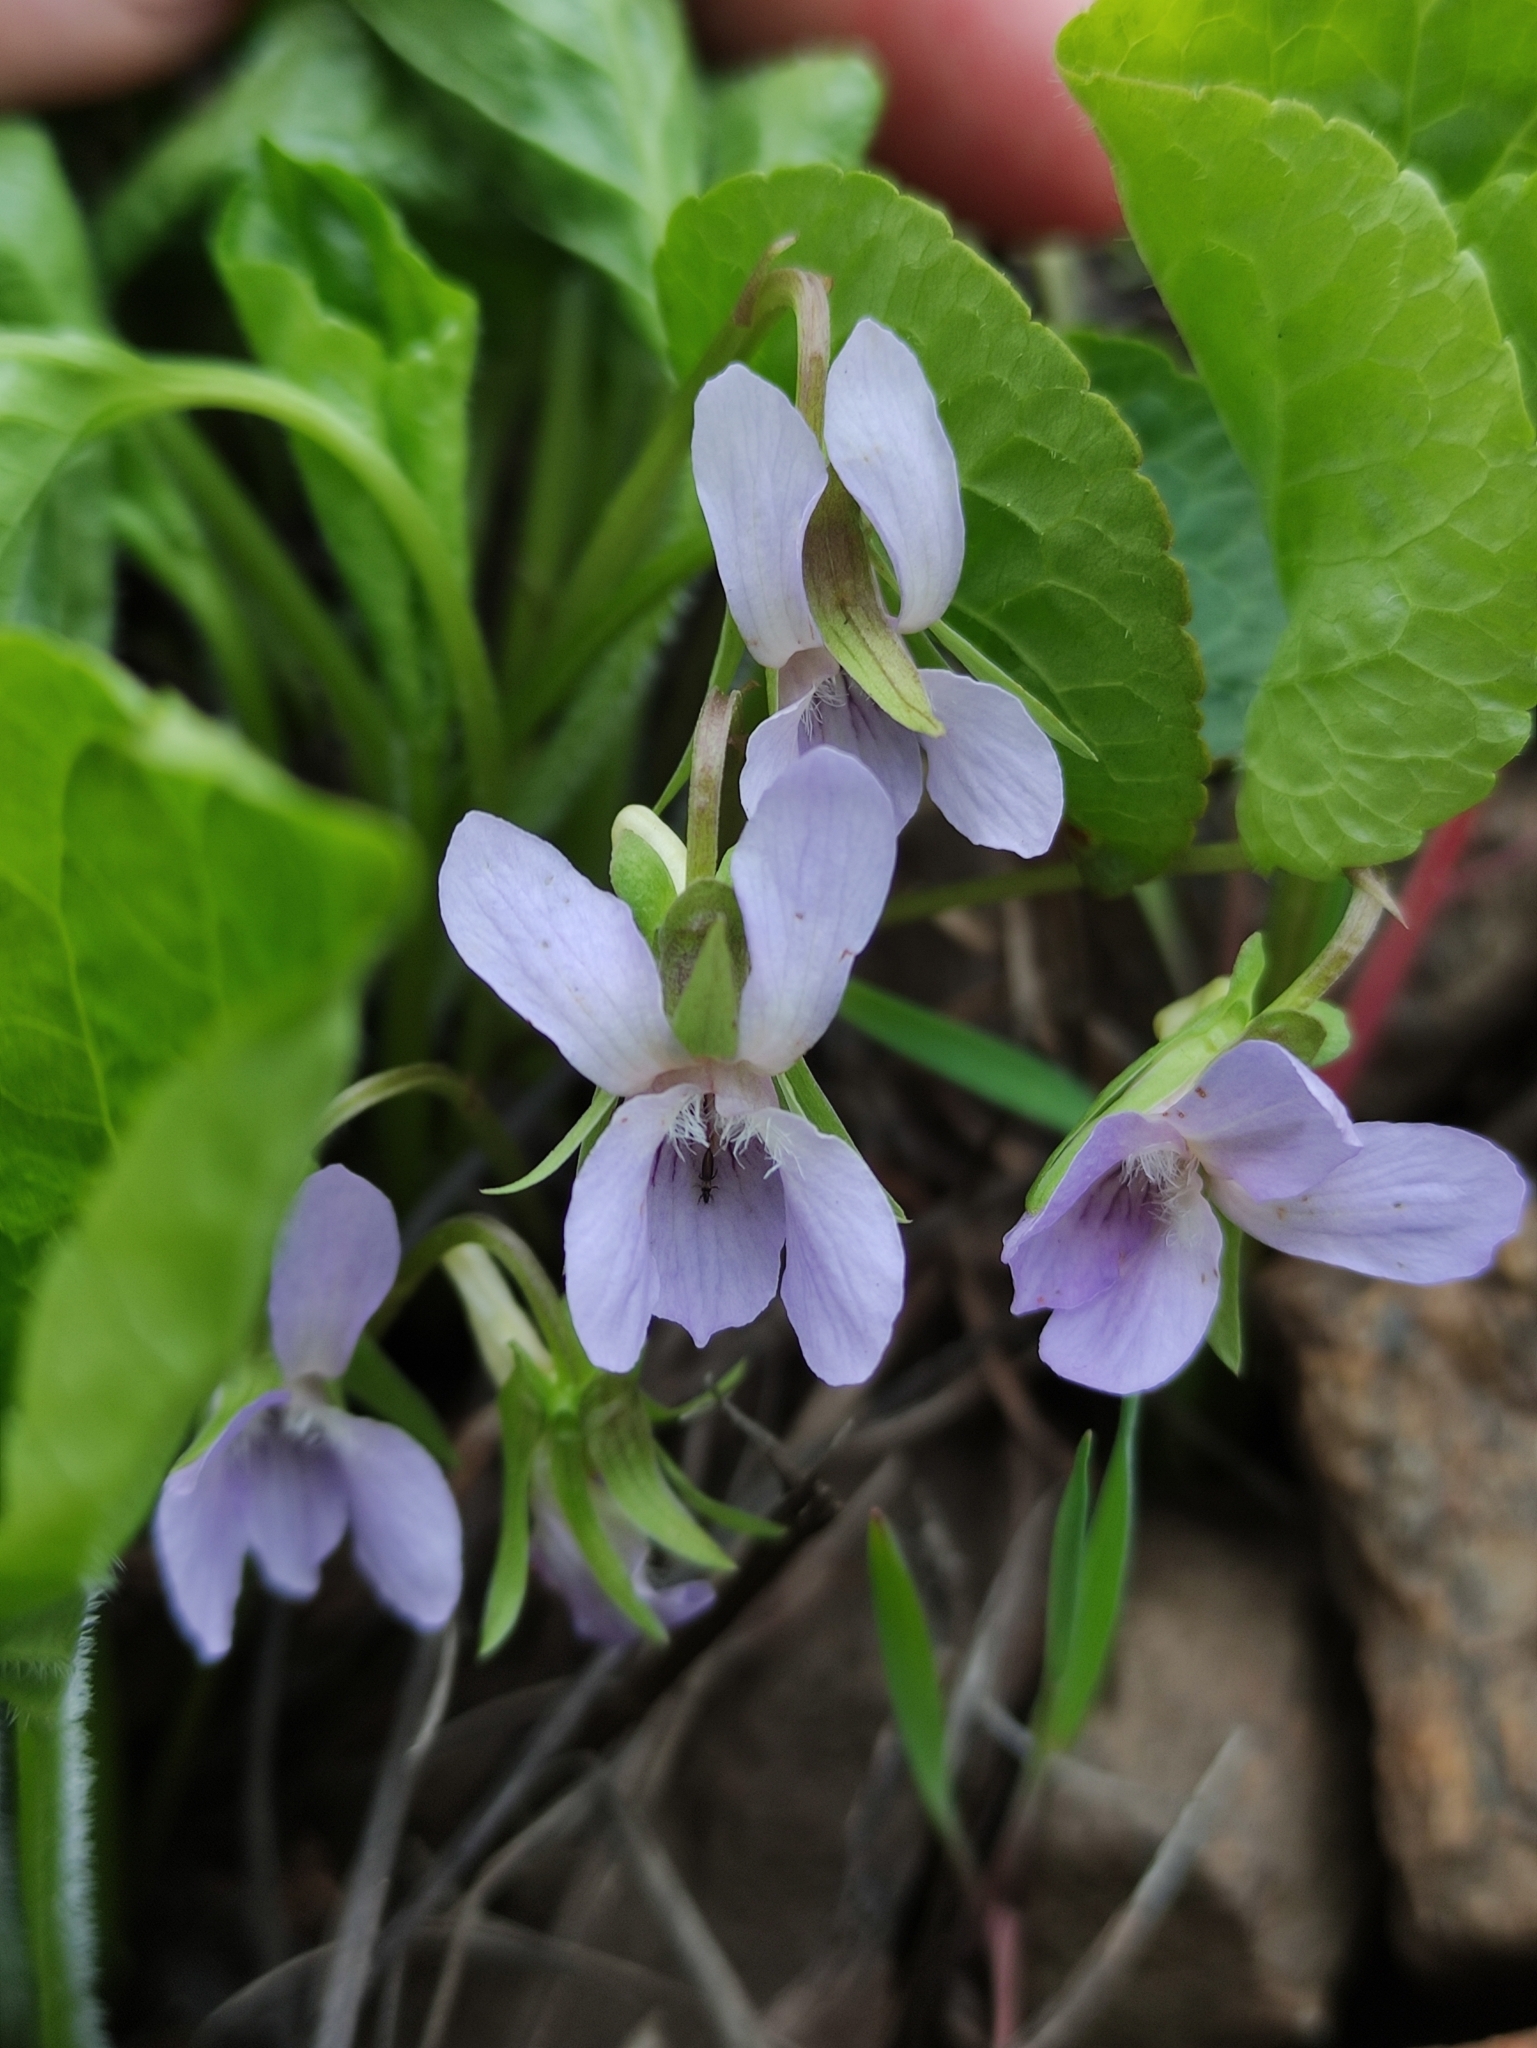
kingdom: Plantae
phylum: Tracheophyta
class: Magnoliopsida
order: Malpighiales
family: Violaceae
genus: Viola
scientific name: Viola mirabilis
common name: Wonder violet
